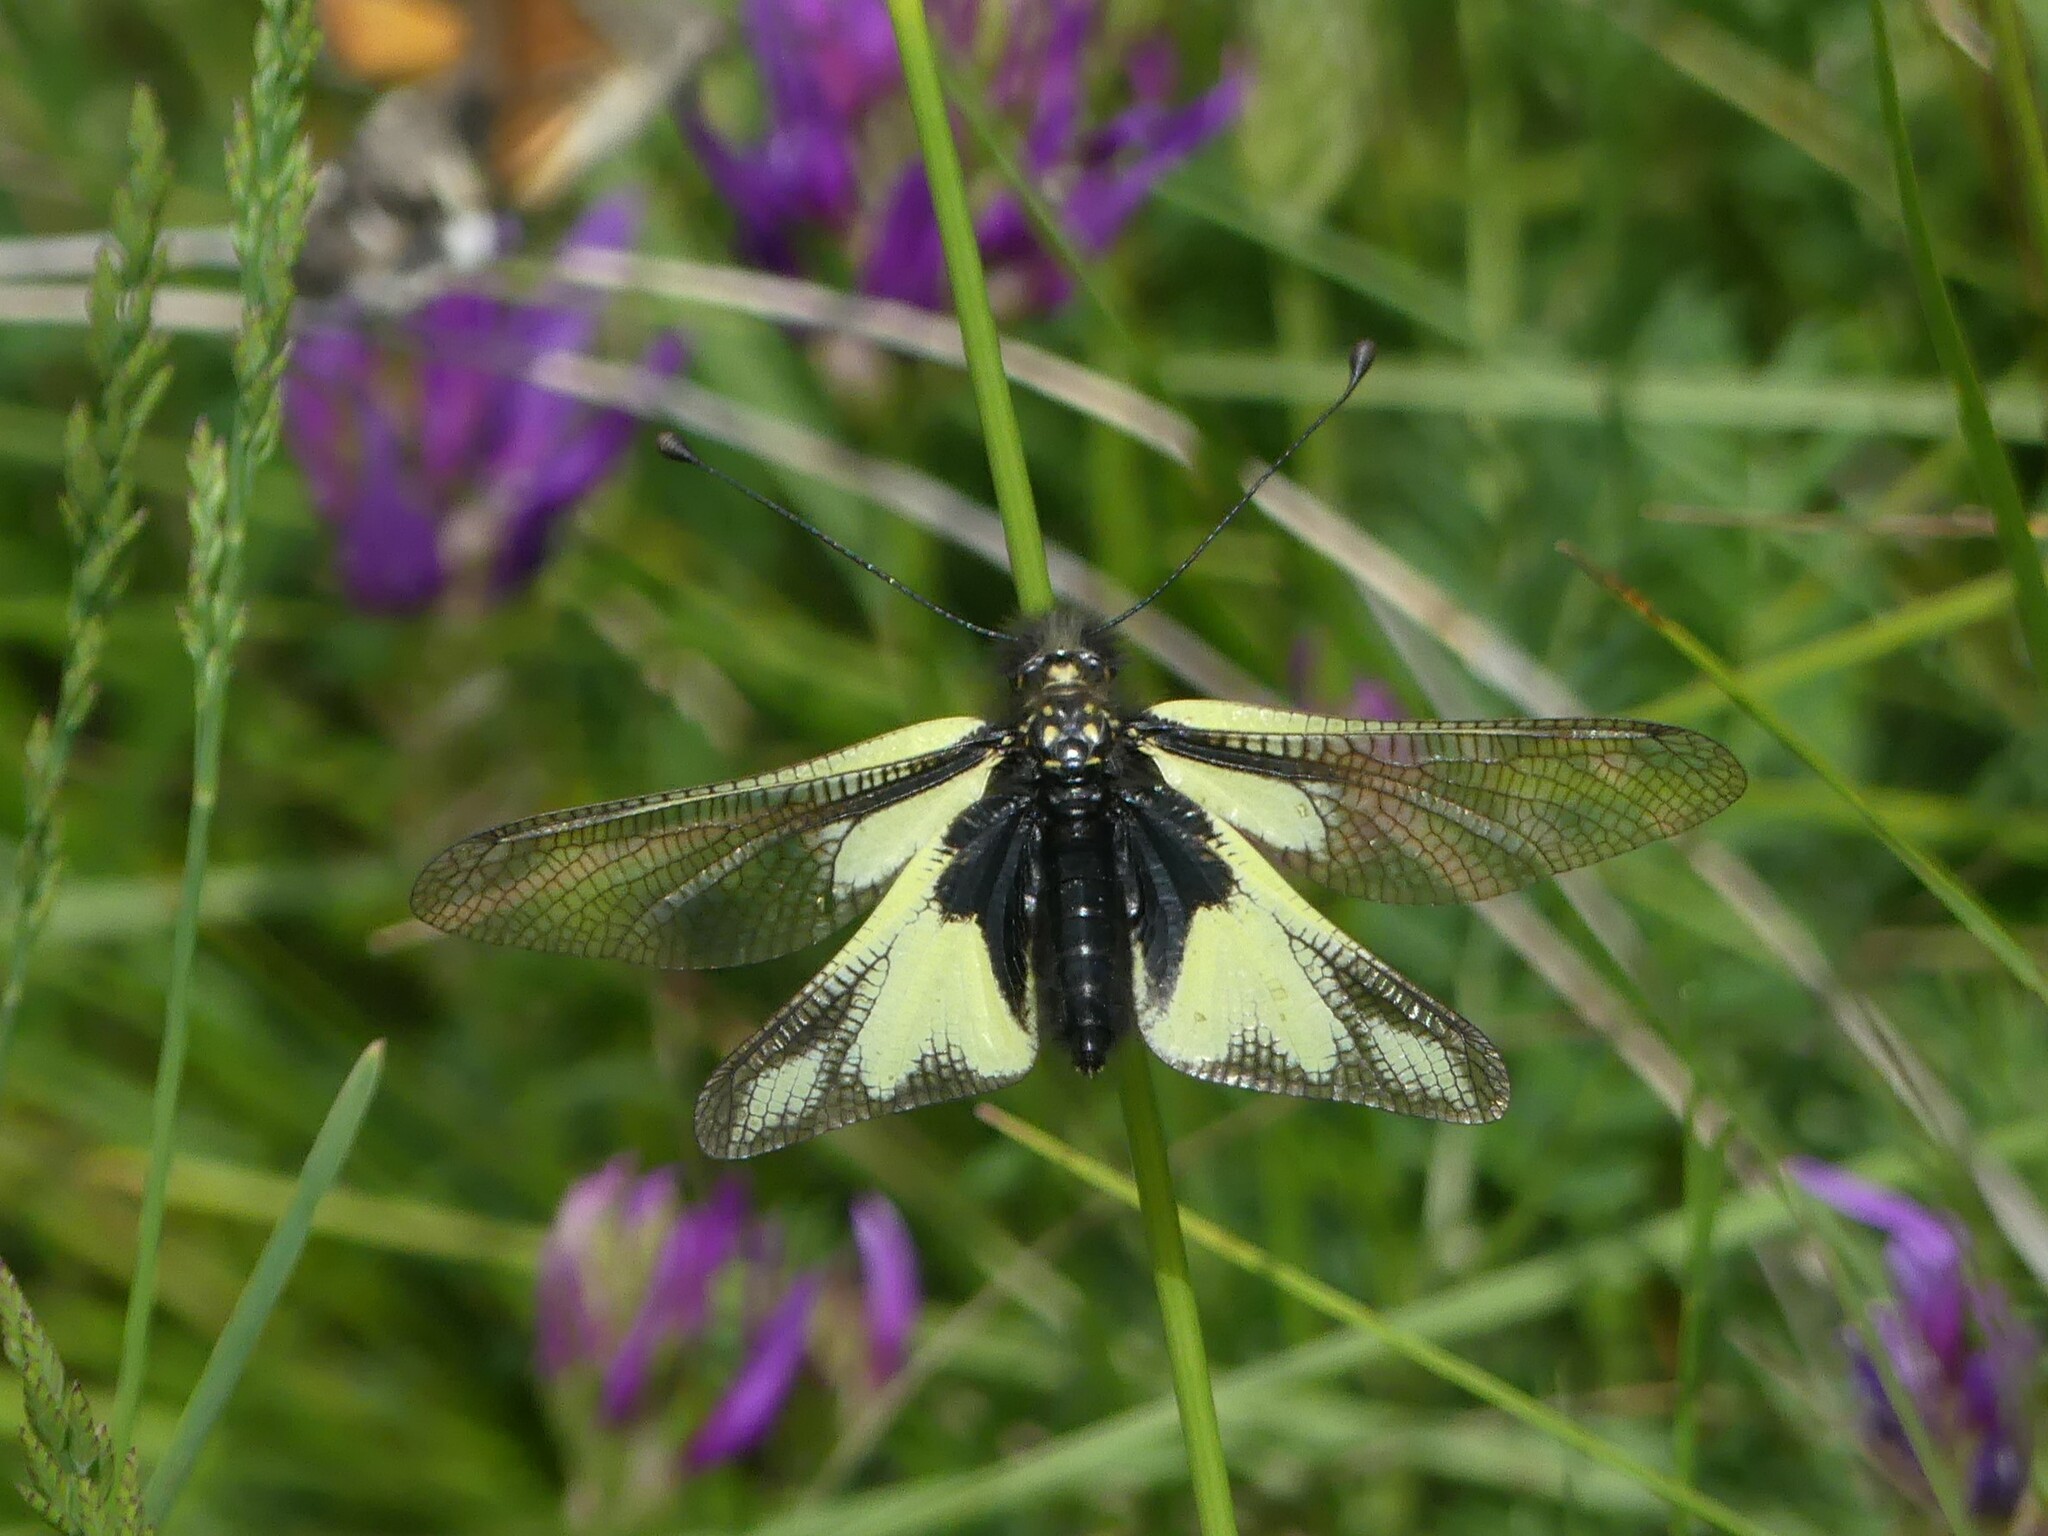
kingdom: Animalia
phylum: Arthropoda
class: Insecta
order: Neuroptera
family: Ascalaphidae
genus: Libelloides
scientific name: Libelloides coccajus
